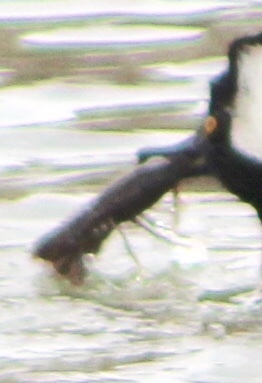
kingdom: Animalia
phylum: Arthropoda
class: Malacostraca
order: Decapoda
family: Cambaridae
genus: Faxonius
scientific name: Faxonius virilis
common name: Virile crayfish
